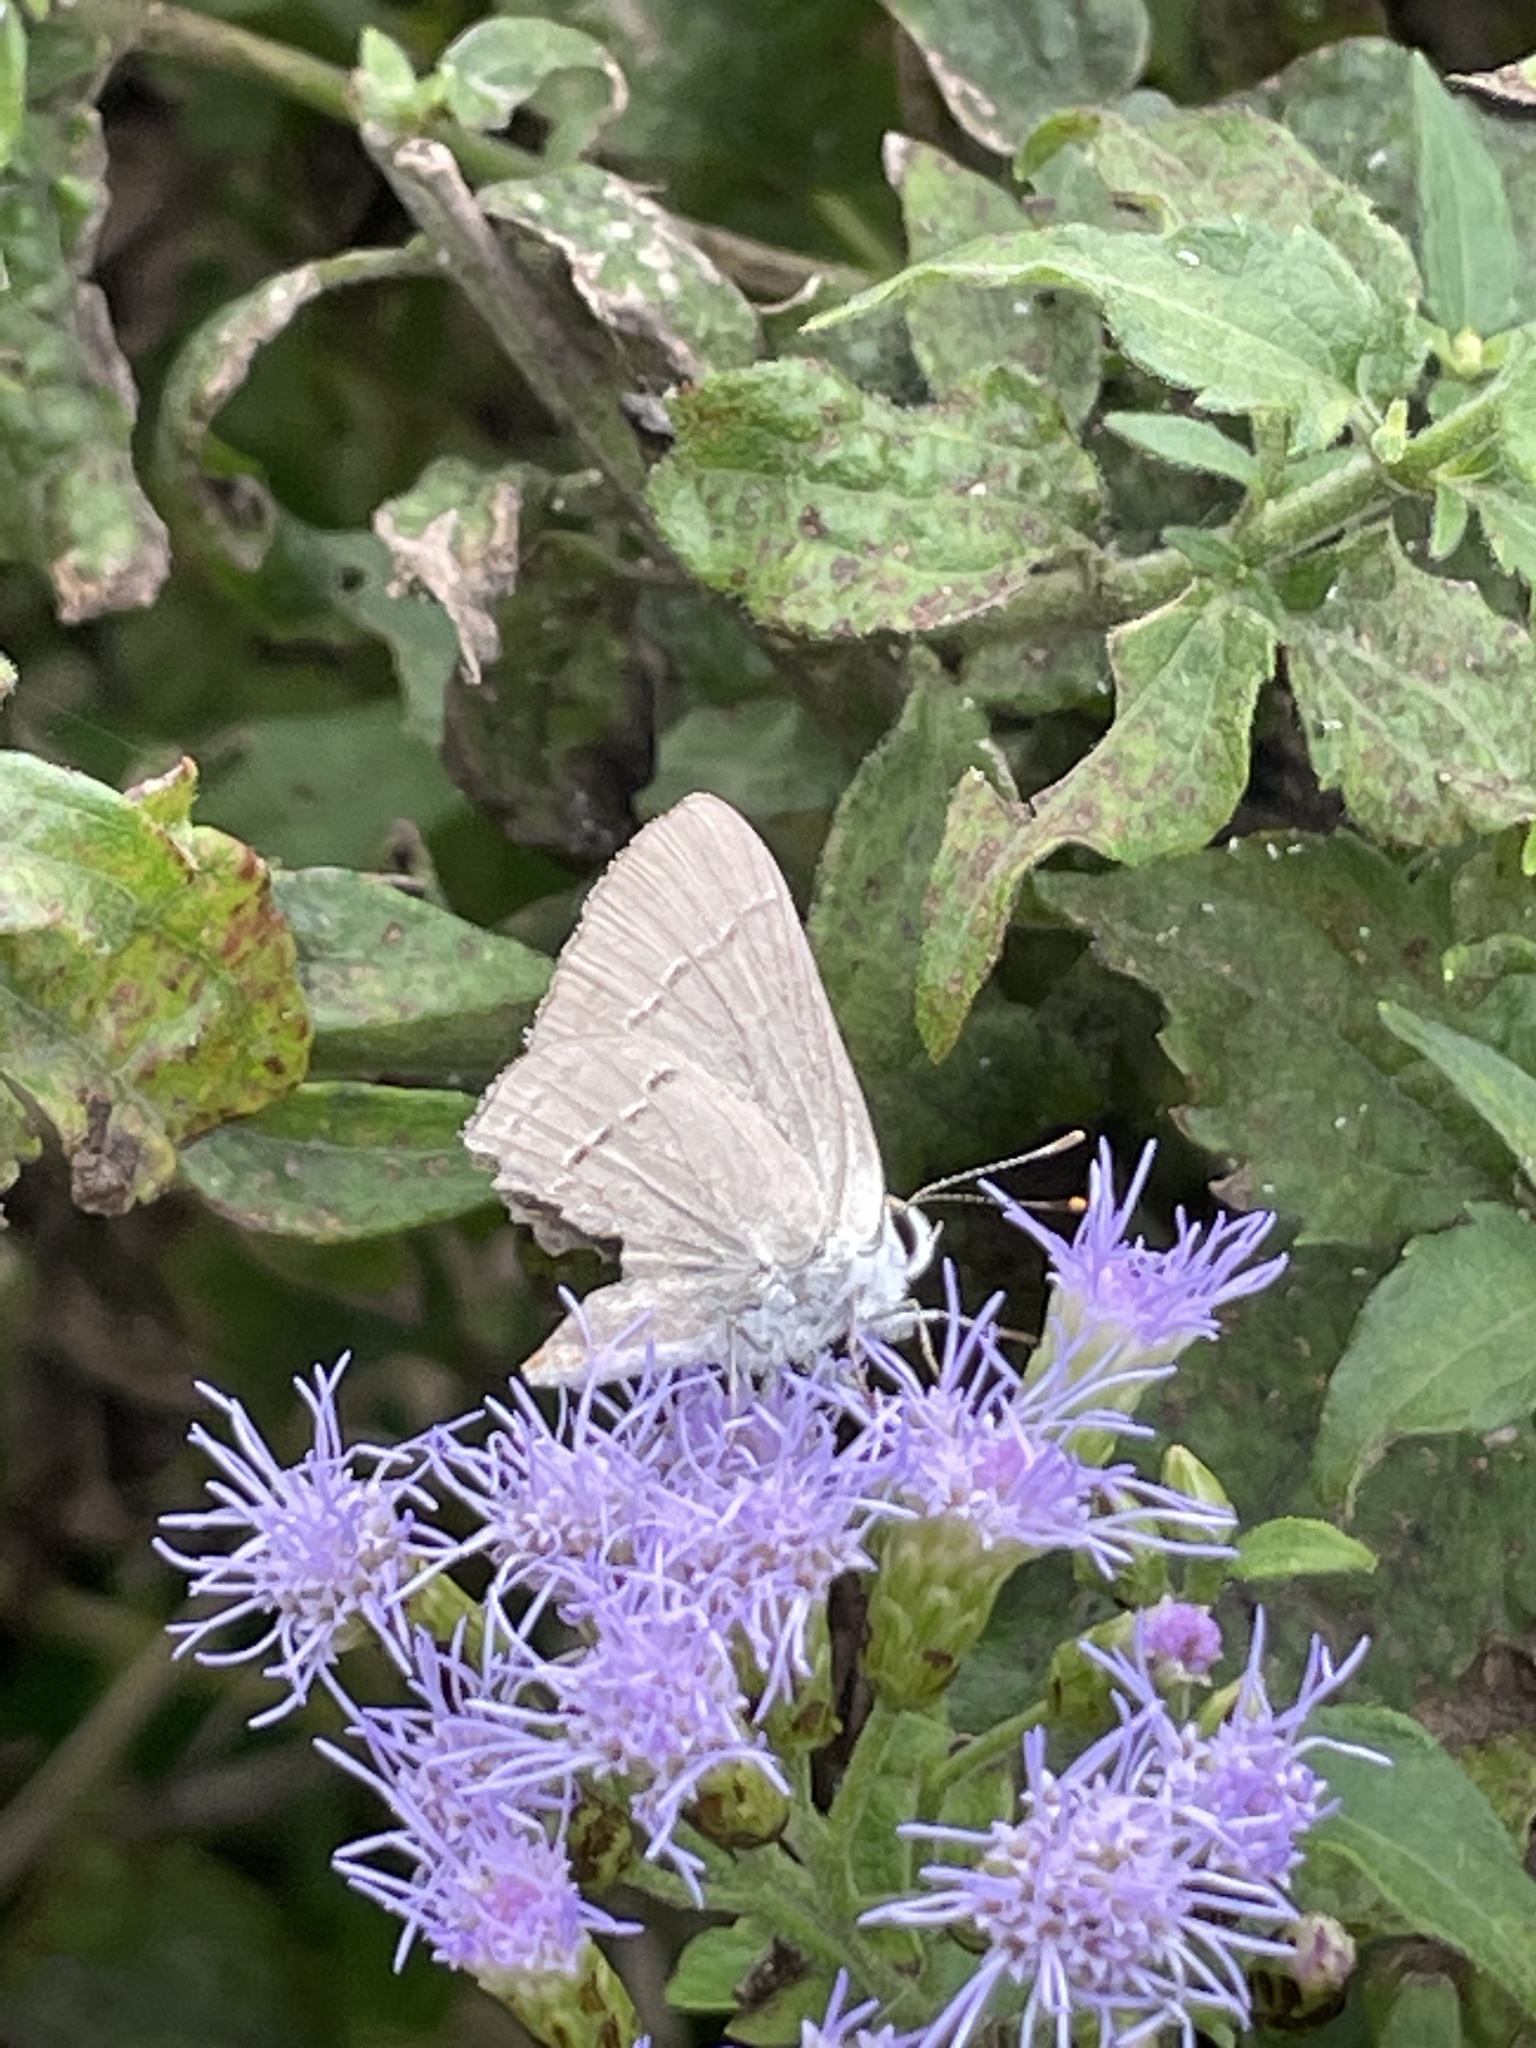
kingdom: Animalia
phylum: Arthropoda
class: Insecta
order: Lepidoptera
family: Lycaenidae
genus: Strymon
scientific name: Strymon melinus
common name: Gray hairstreak
